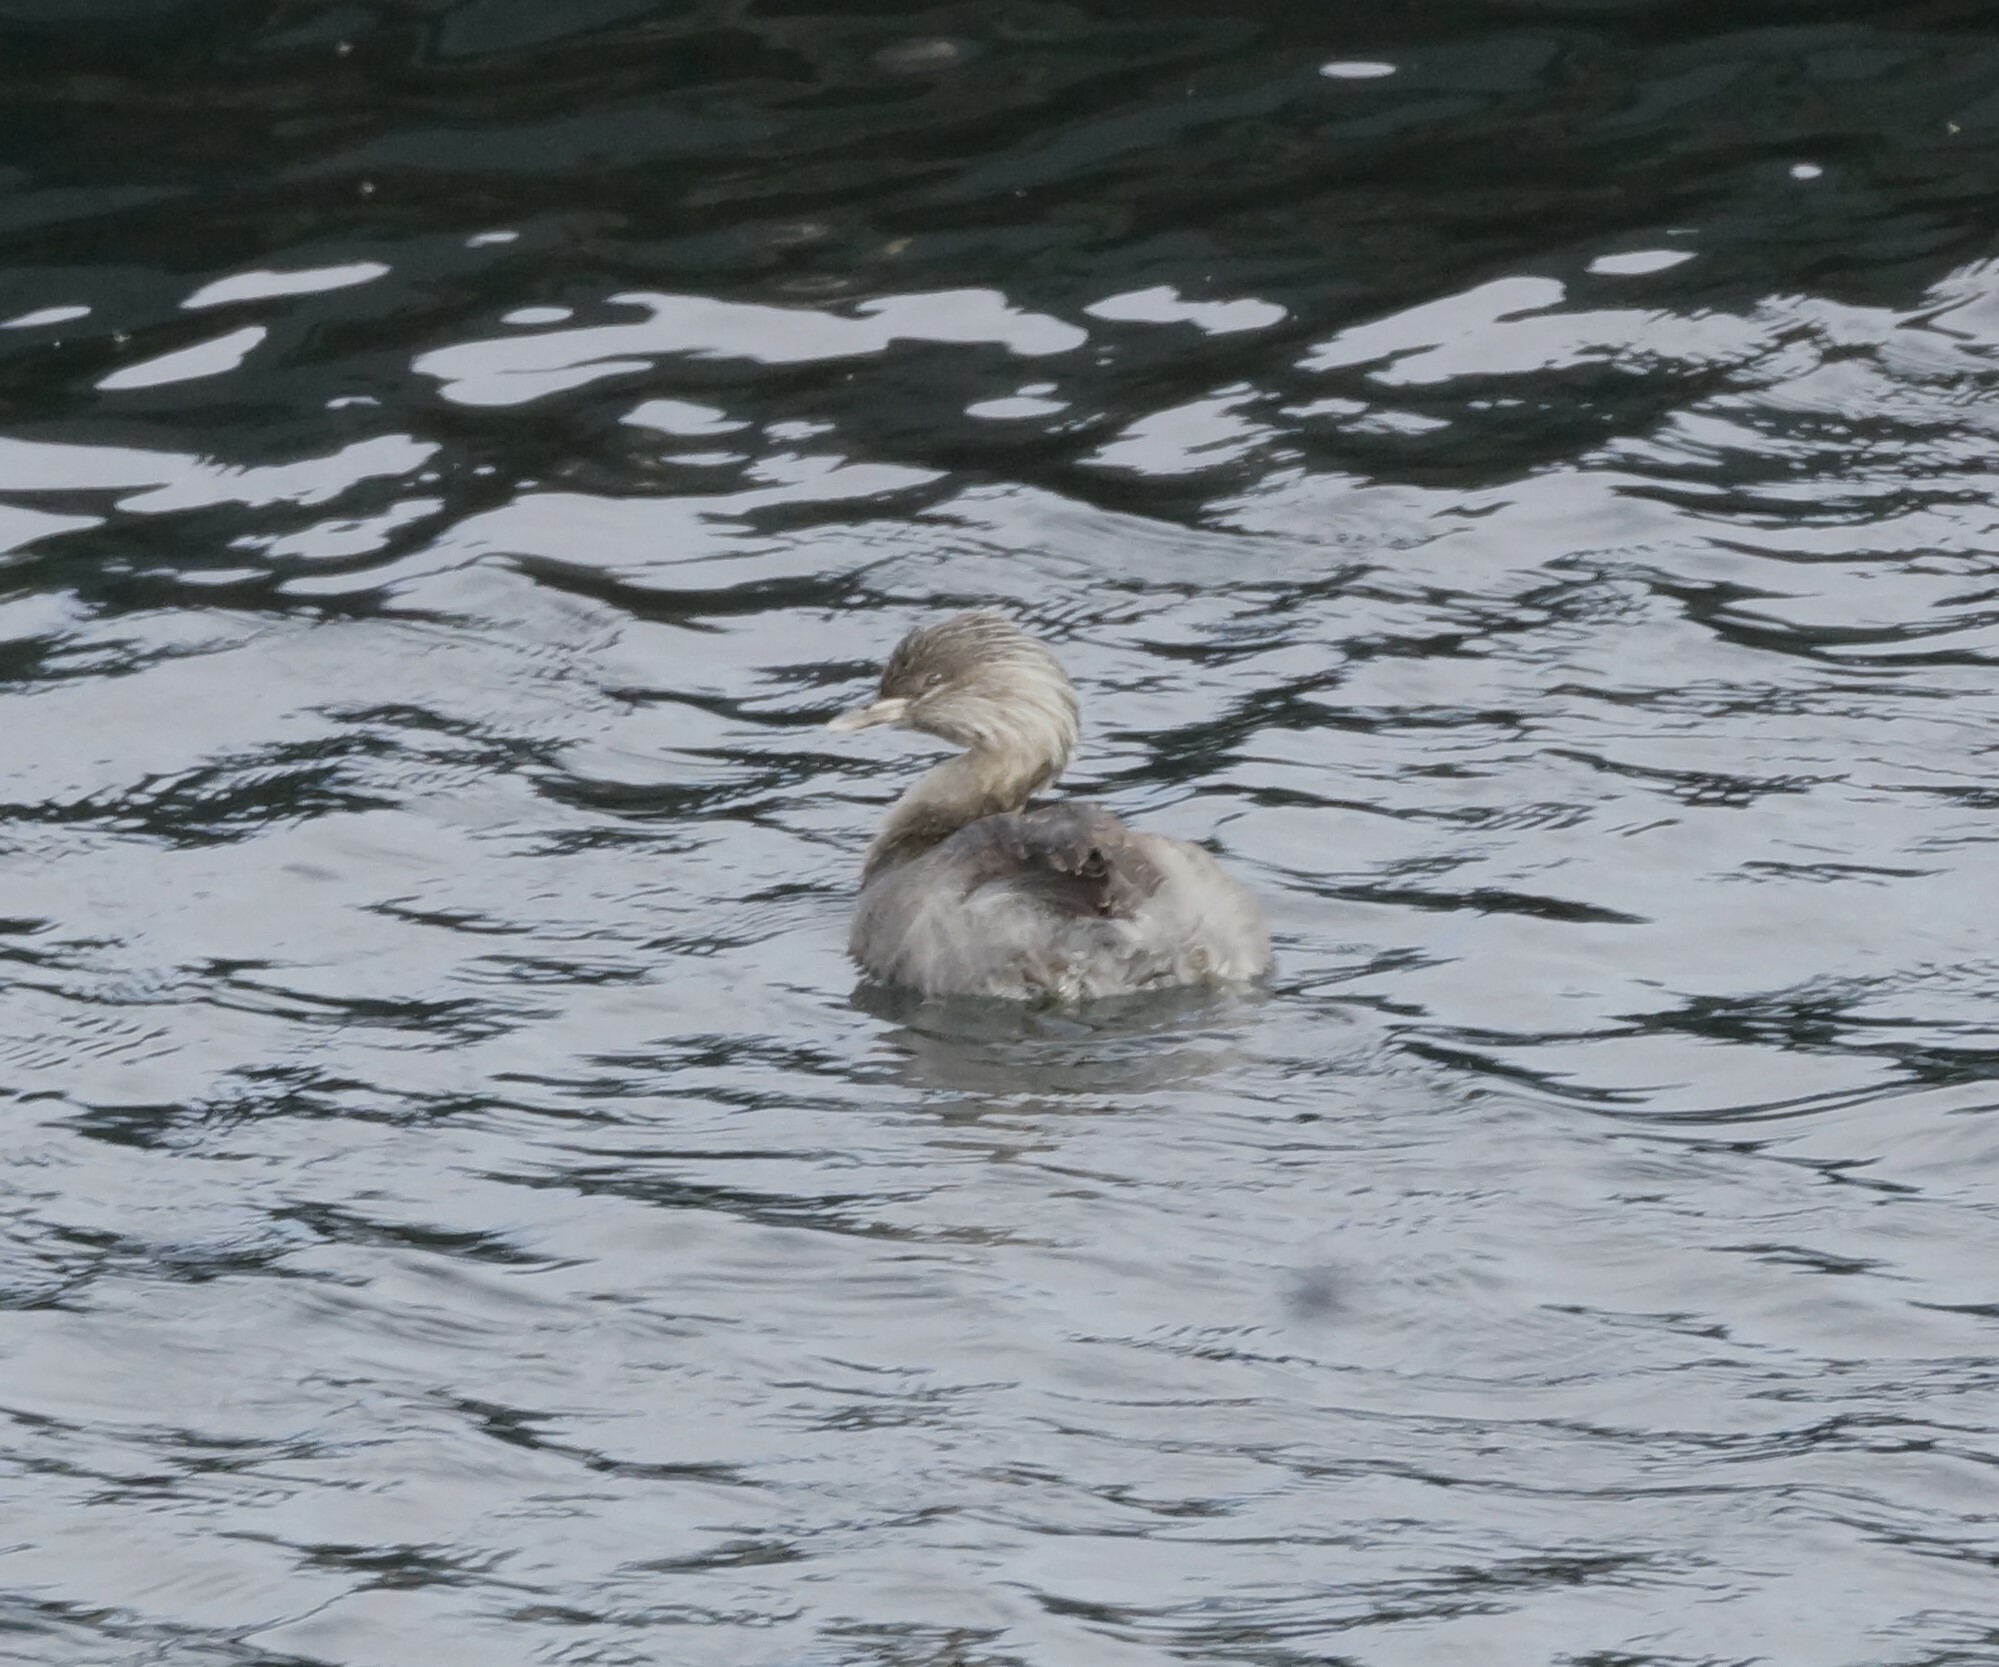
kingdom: Animalia
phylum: Chordata
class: Aves
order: Podicipediformes
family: Podicipedidae
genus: Poliocephalus
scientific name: Poliocephalus poliocephalus
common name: Hoary-headed grebe
